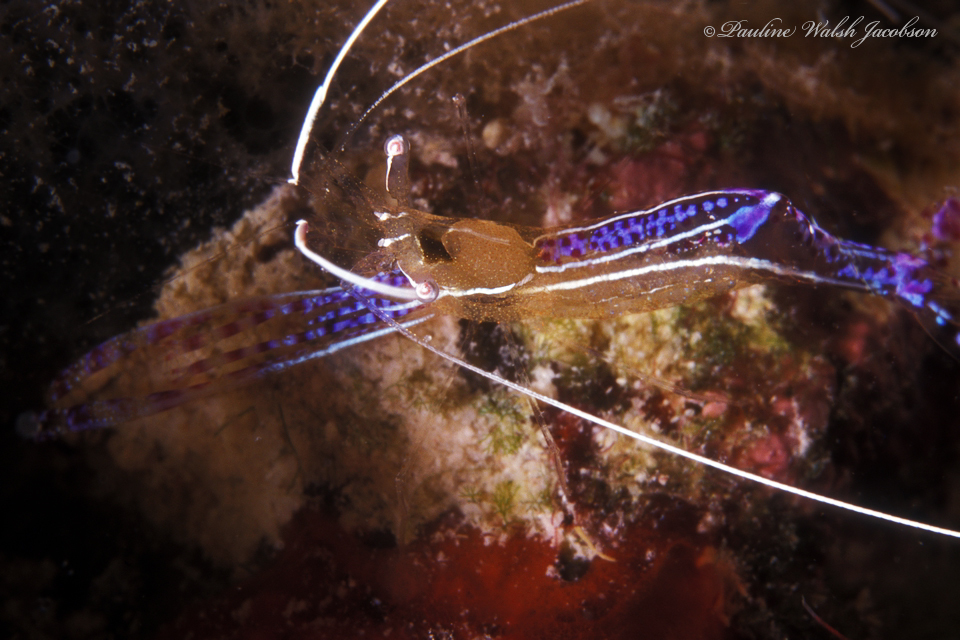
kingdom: Animalia
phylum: Arthropoda
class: Malacostraca
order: Decapoda
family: Palaemonidae
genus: Ancylomenes
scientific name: Ancylomenes pedersoni
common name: Pederson's cleaning shrimp
